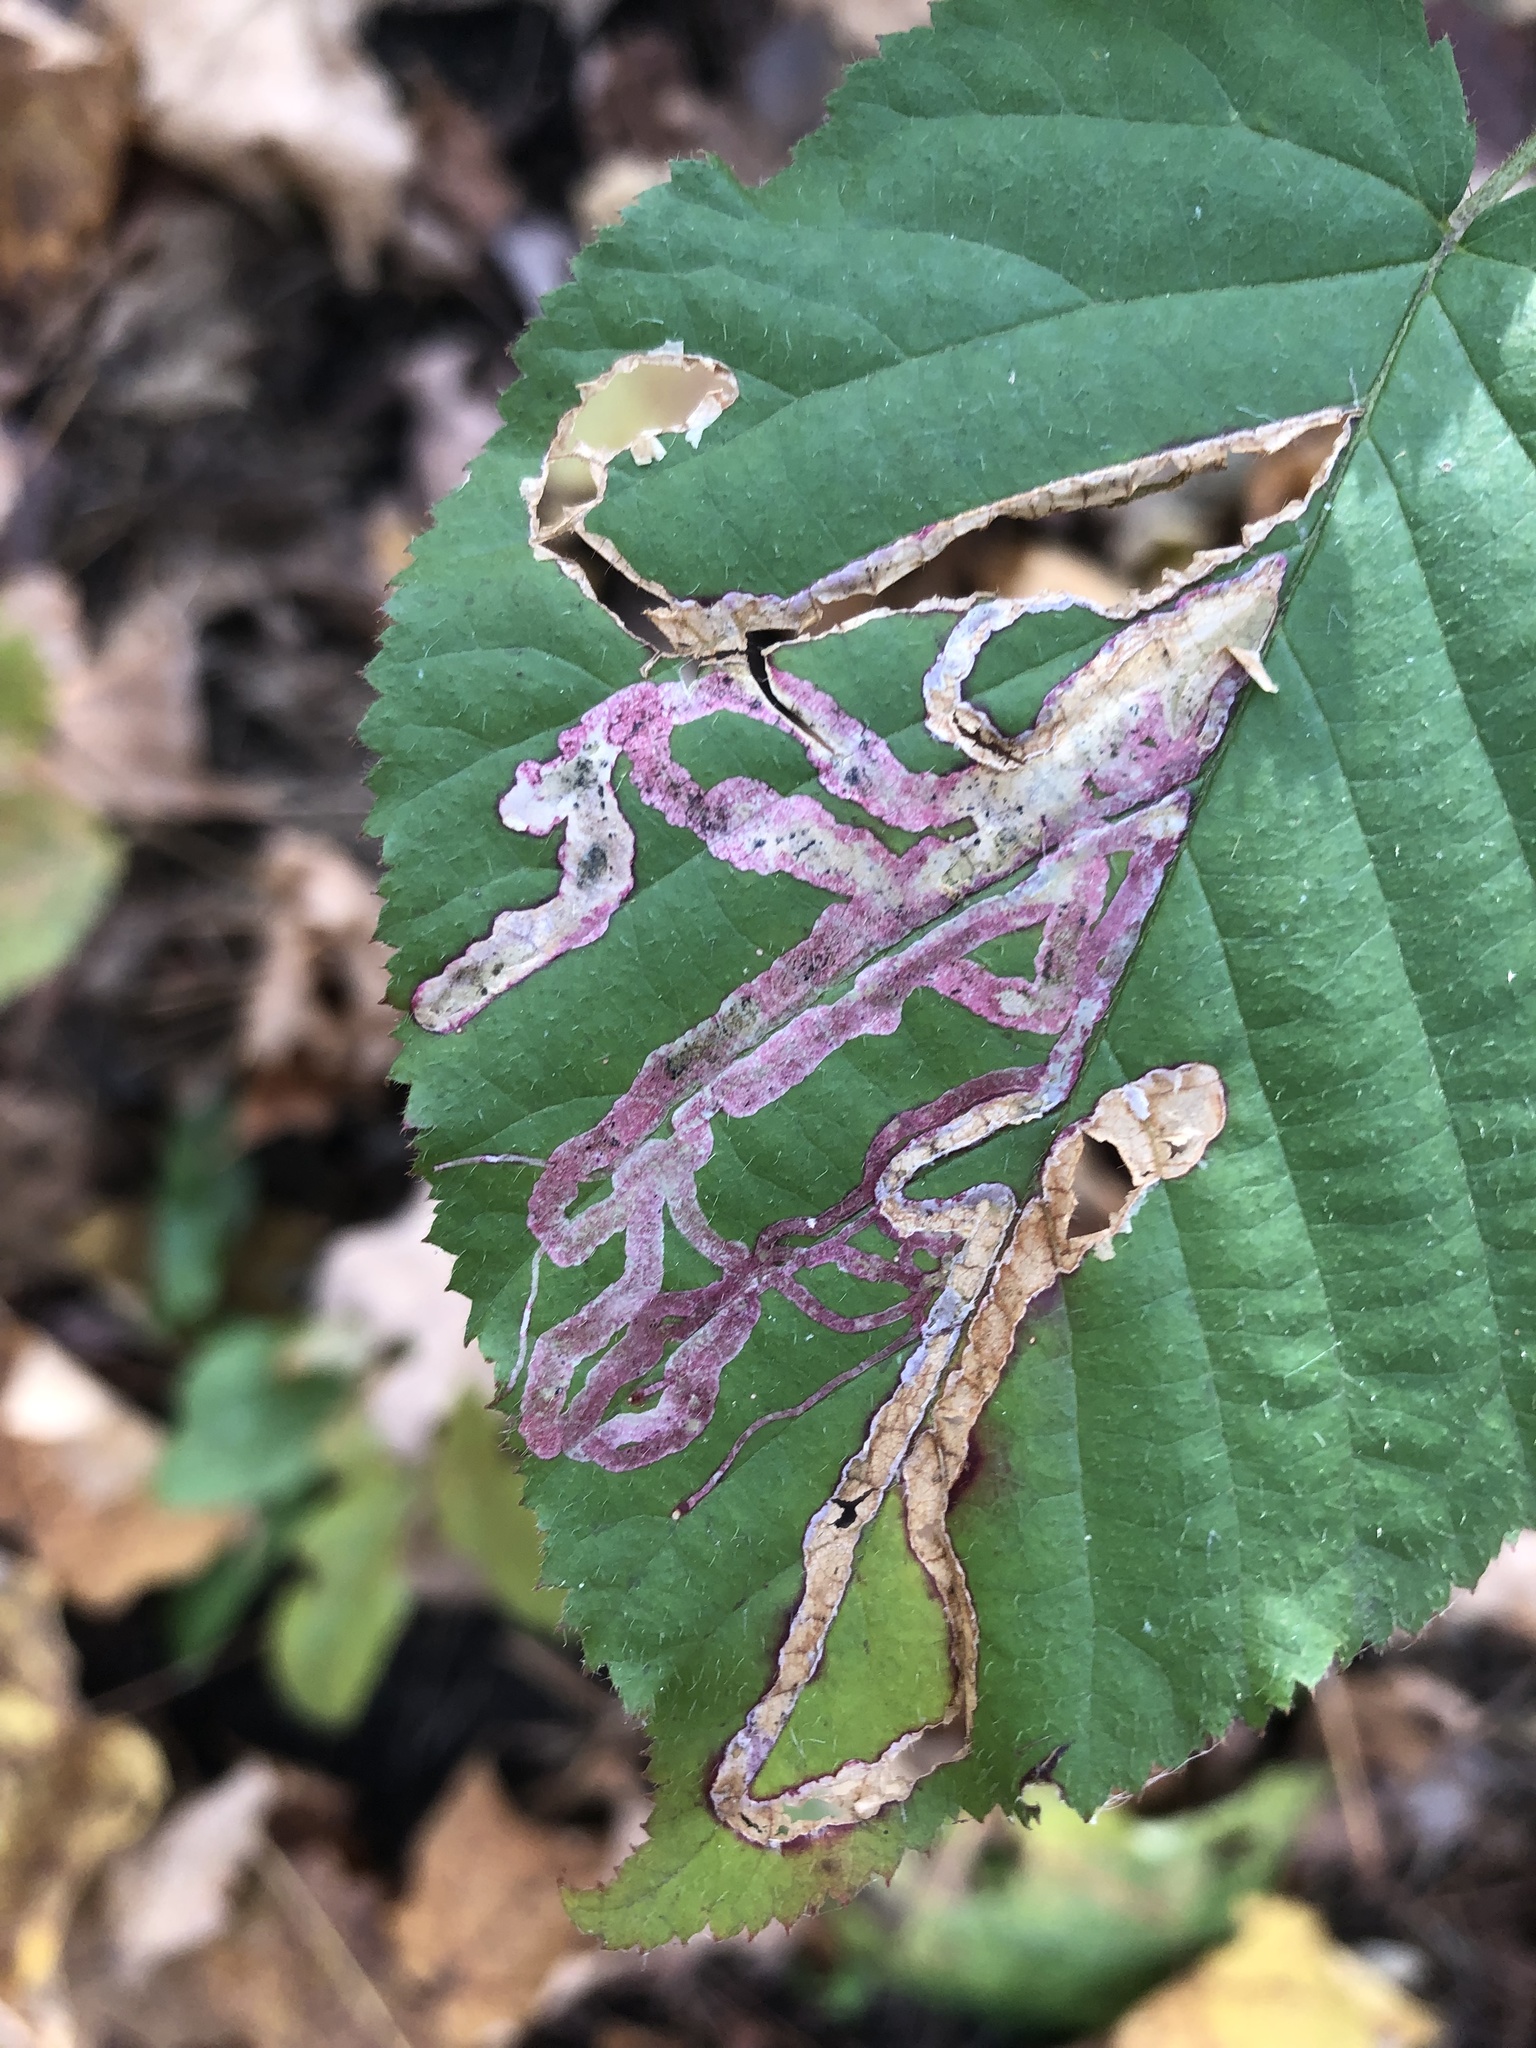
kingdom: Animalia
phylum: Arthropoda
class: Insecta
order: Diptera
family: Agromyzidae
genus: Agromyza
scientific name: Agromyza vockerothi
